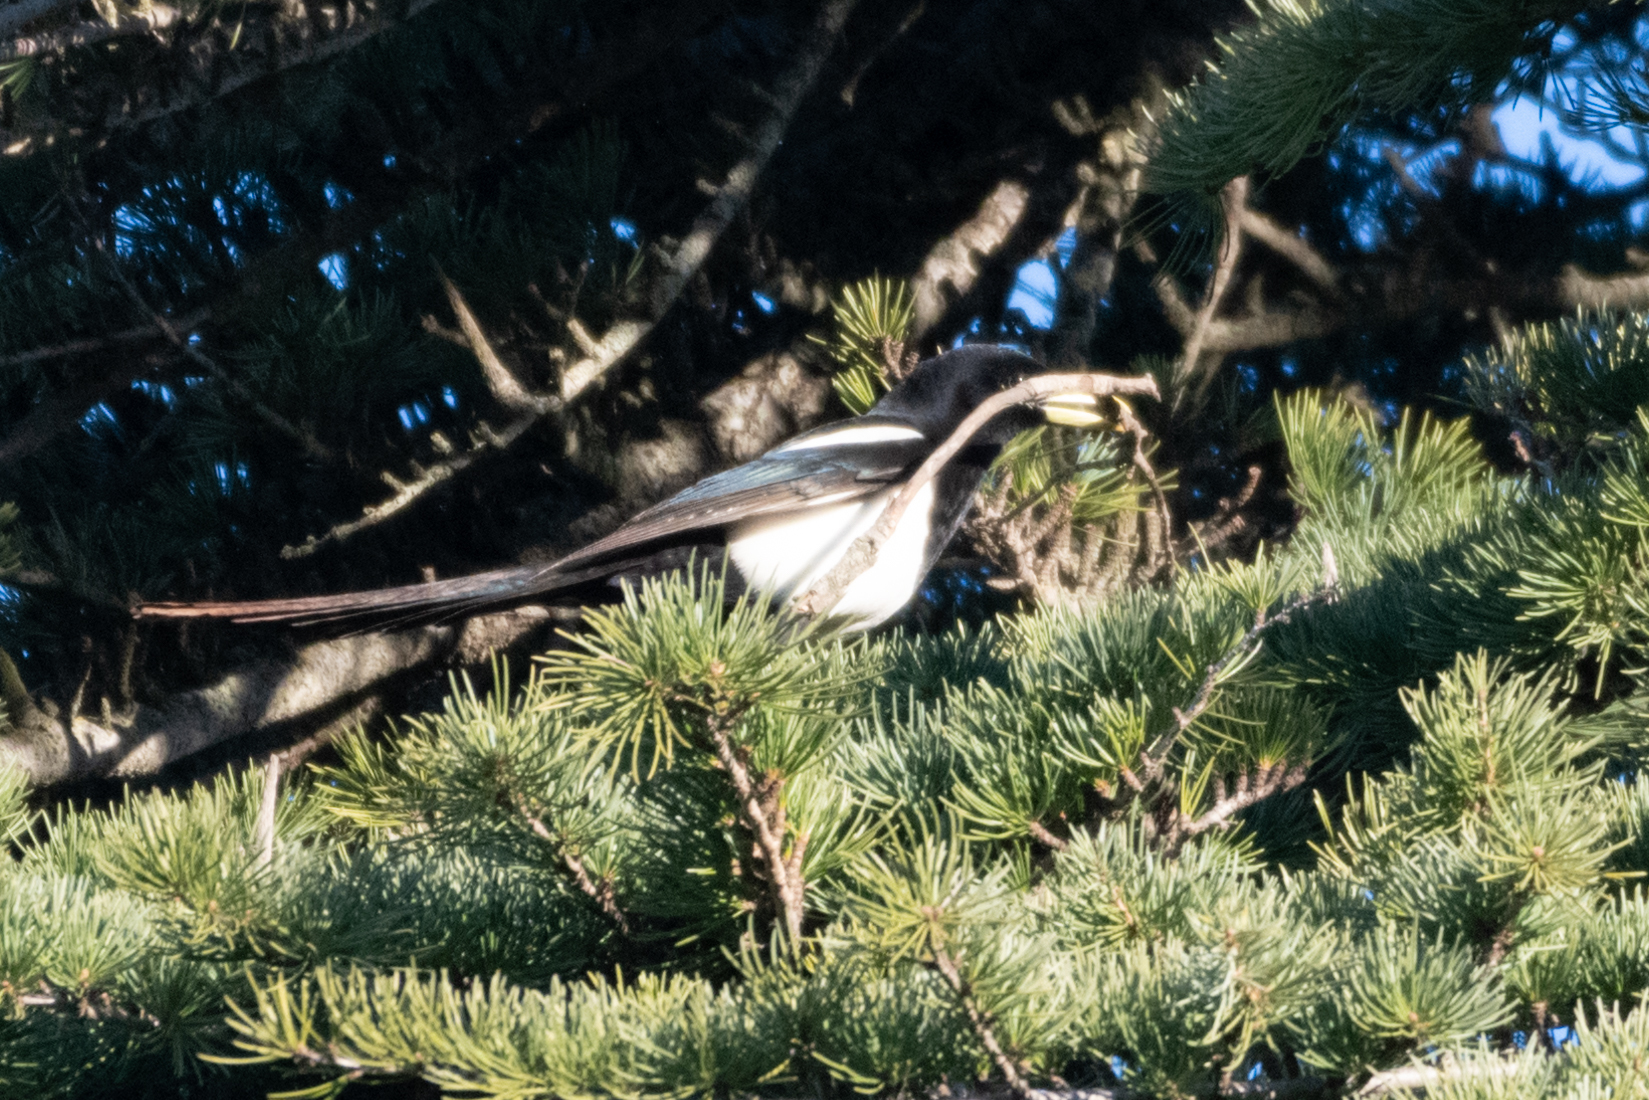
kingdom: Animalia
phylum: Chordata
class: Aves
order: Passeriformes
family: Corvidae
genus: Pica
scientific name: Pica nuttalli
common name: Yellow-billed magpie
